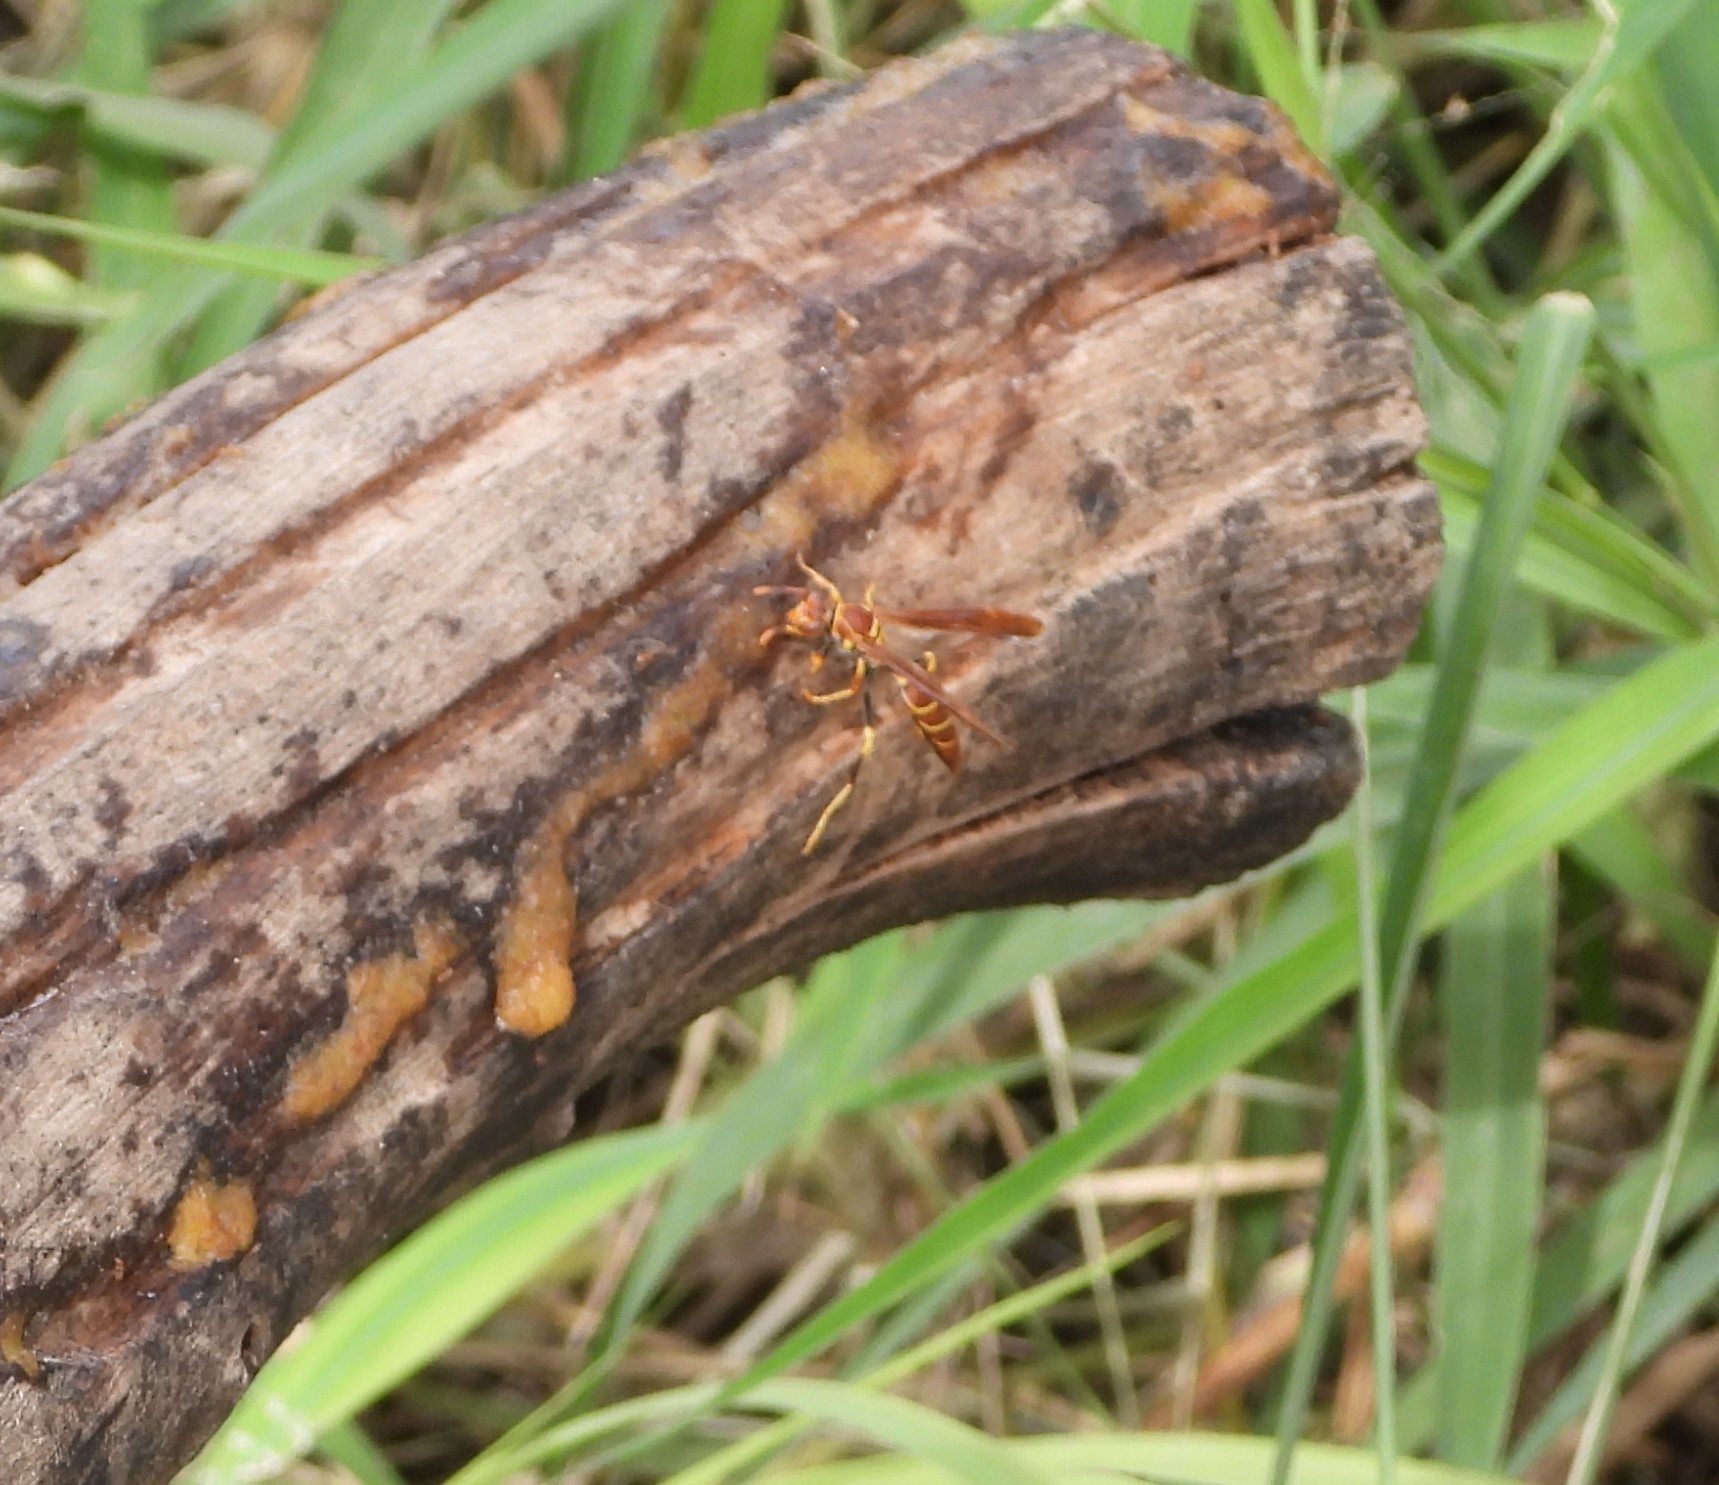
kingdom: Animalia
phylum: Arthropoda
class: Insecta
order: Hymenoptera
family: Eumenidae
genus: Polistes
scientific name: Polistes instabilis
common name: Unstable paper wasp
